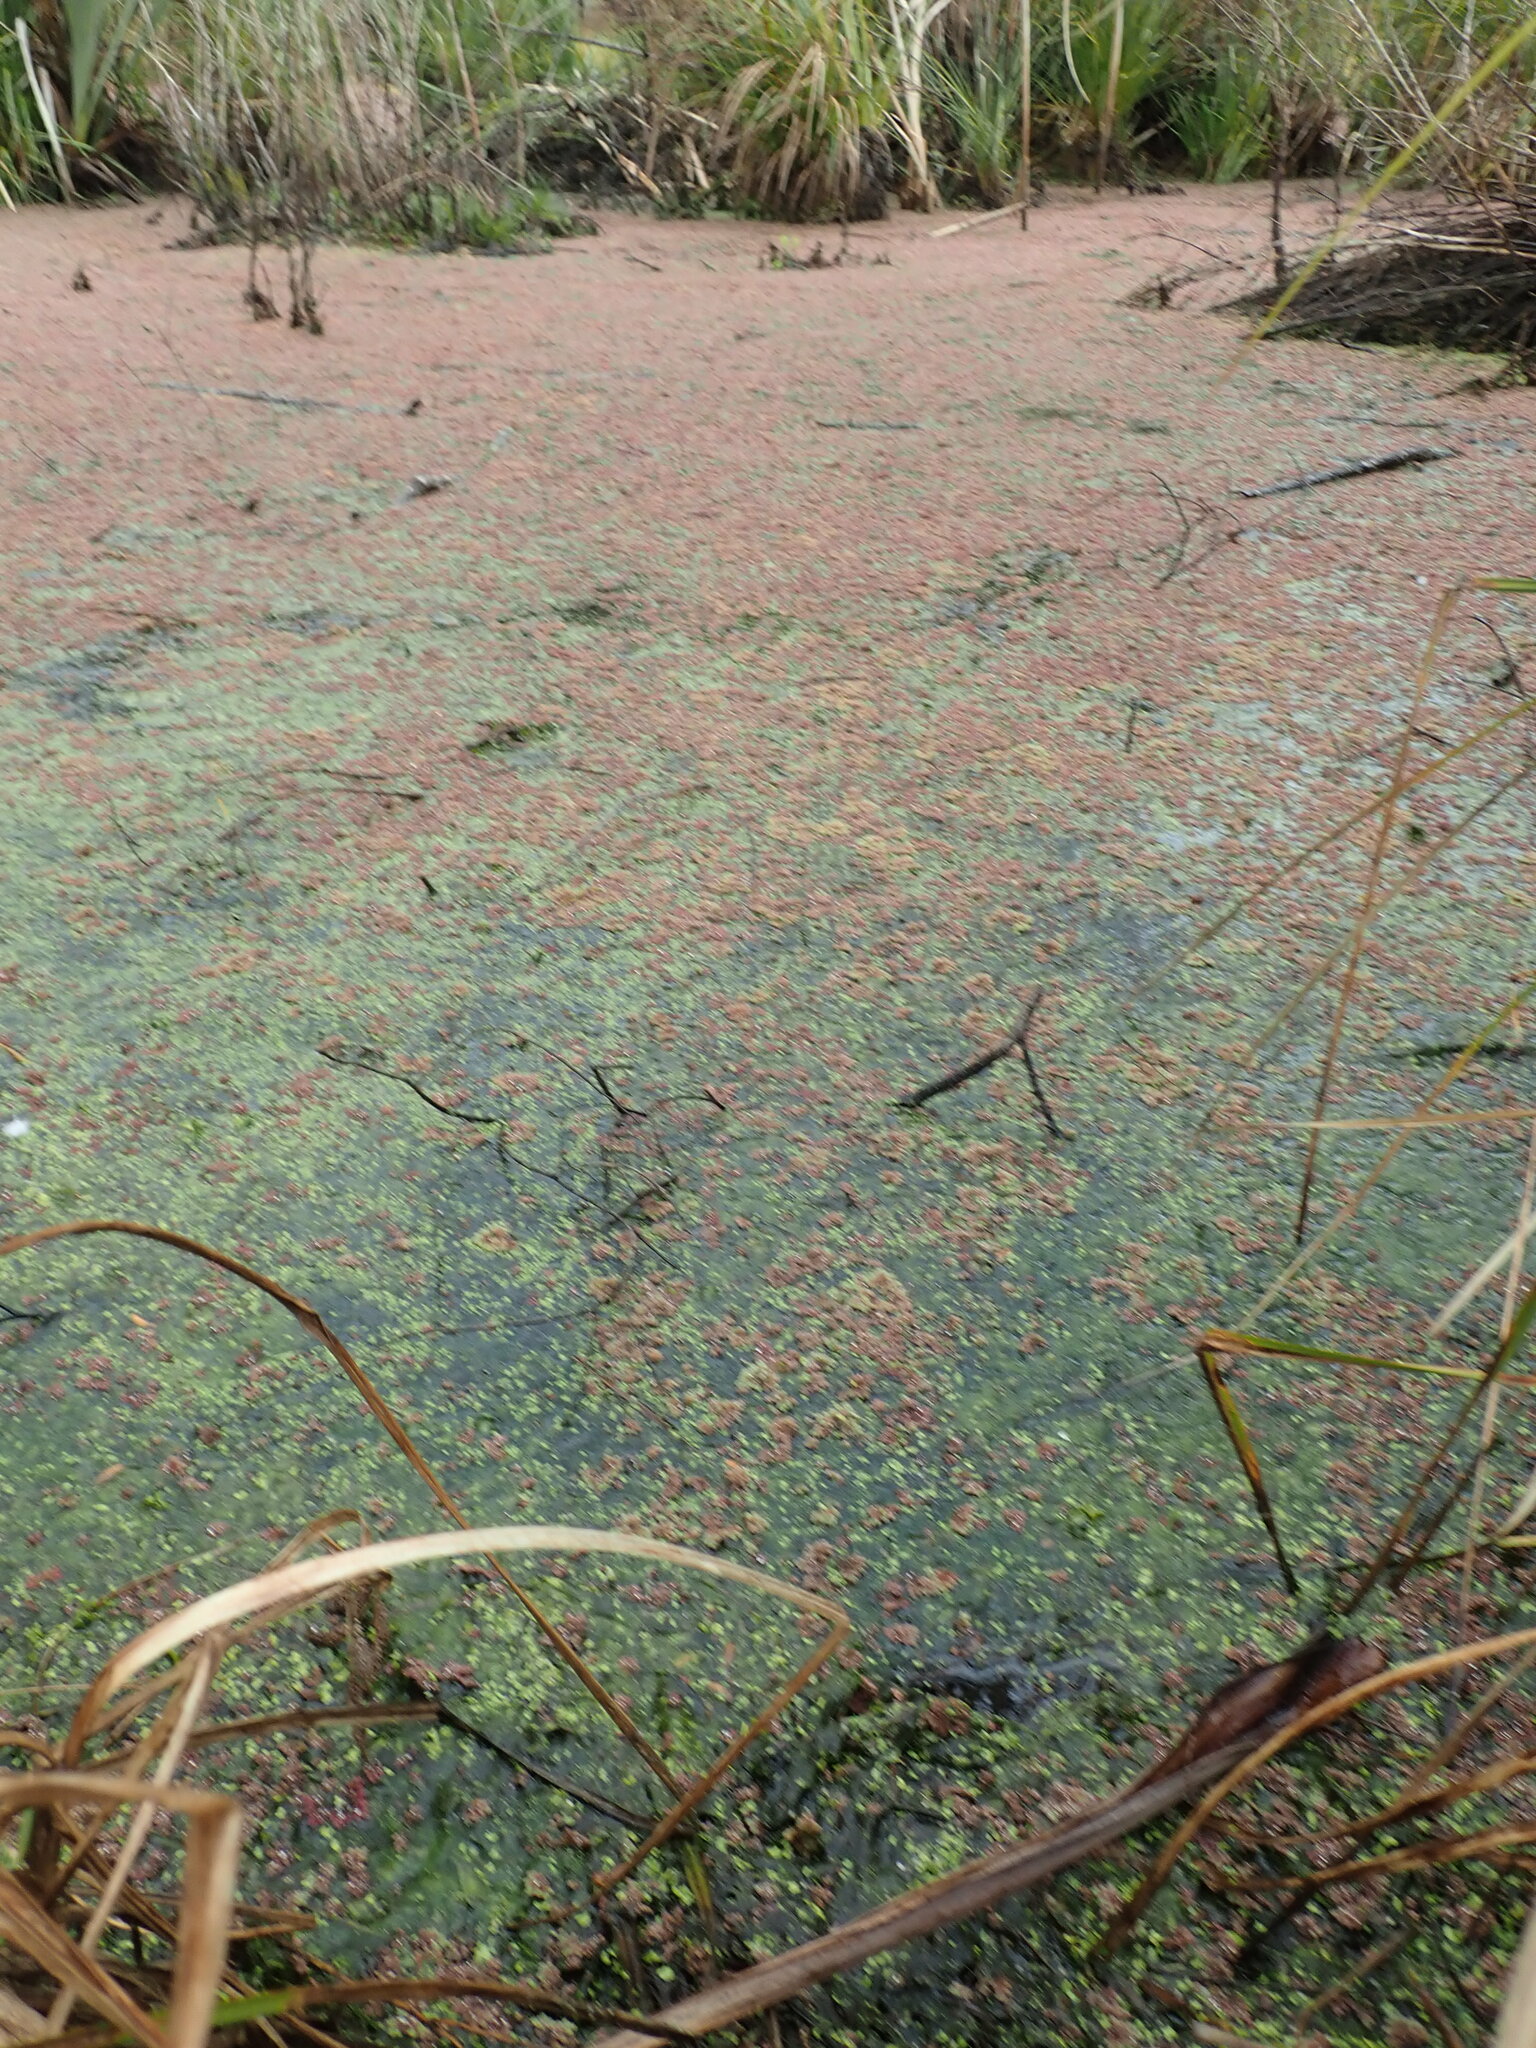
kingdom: Plantae
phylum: Tracheophyta
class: Polypodiopsida
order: Salviniales
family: Salviniaceae
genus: Azolla
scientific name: Azolla rubra
